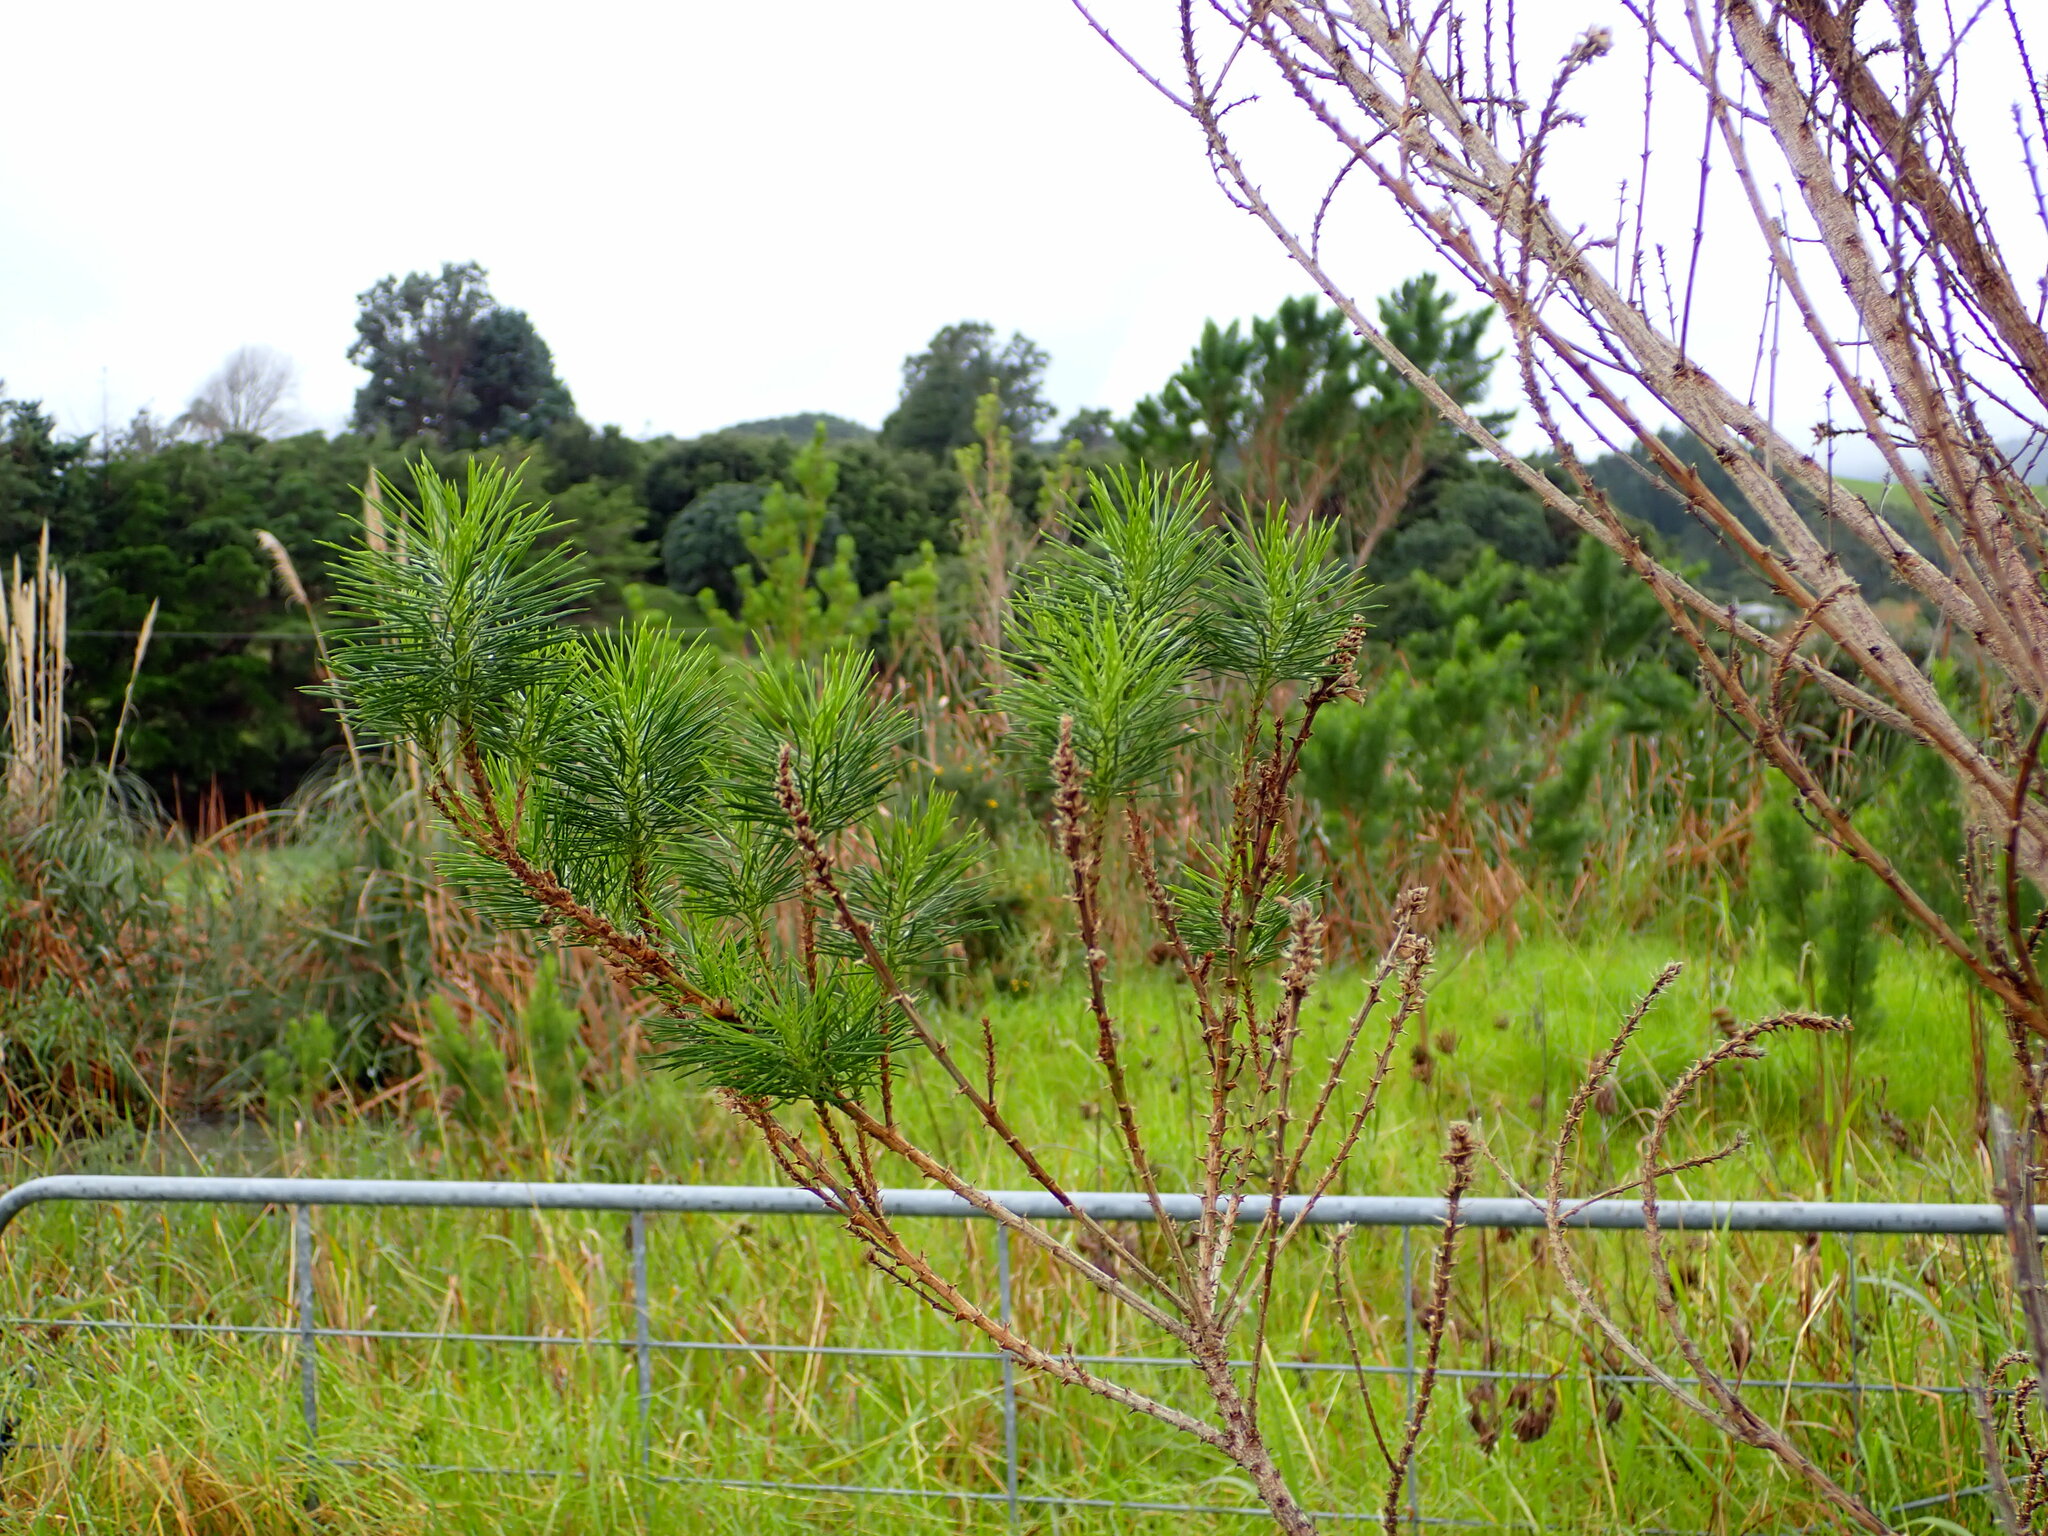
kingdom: Plantae
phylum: Tracheophyta
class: Magnoliopsida
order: Fabales
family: Fabaceae
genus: Psoralea
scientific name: Psoralea pinnata
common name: African scurfpea
